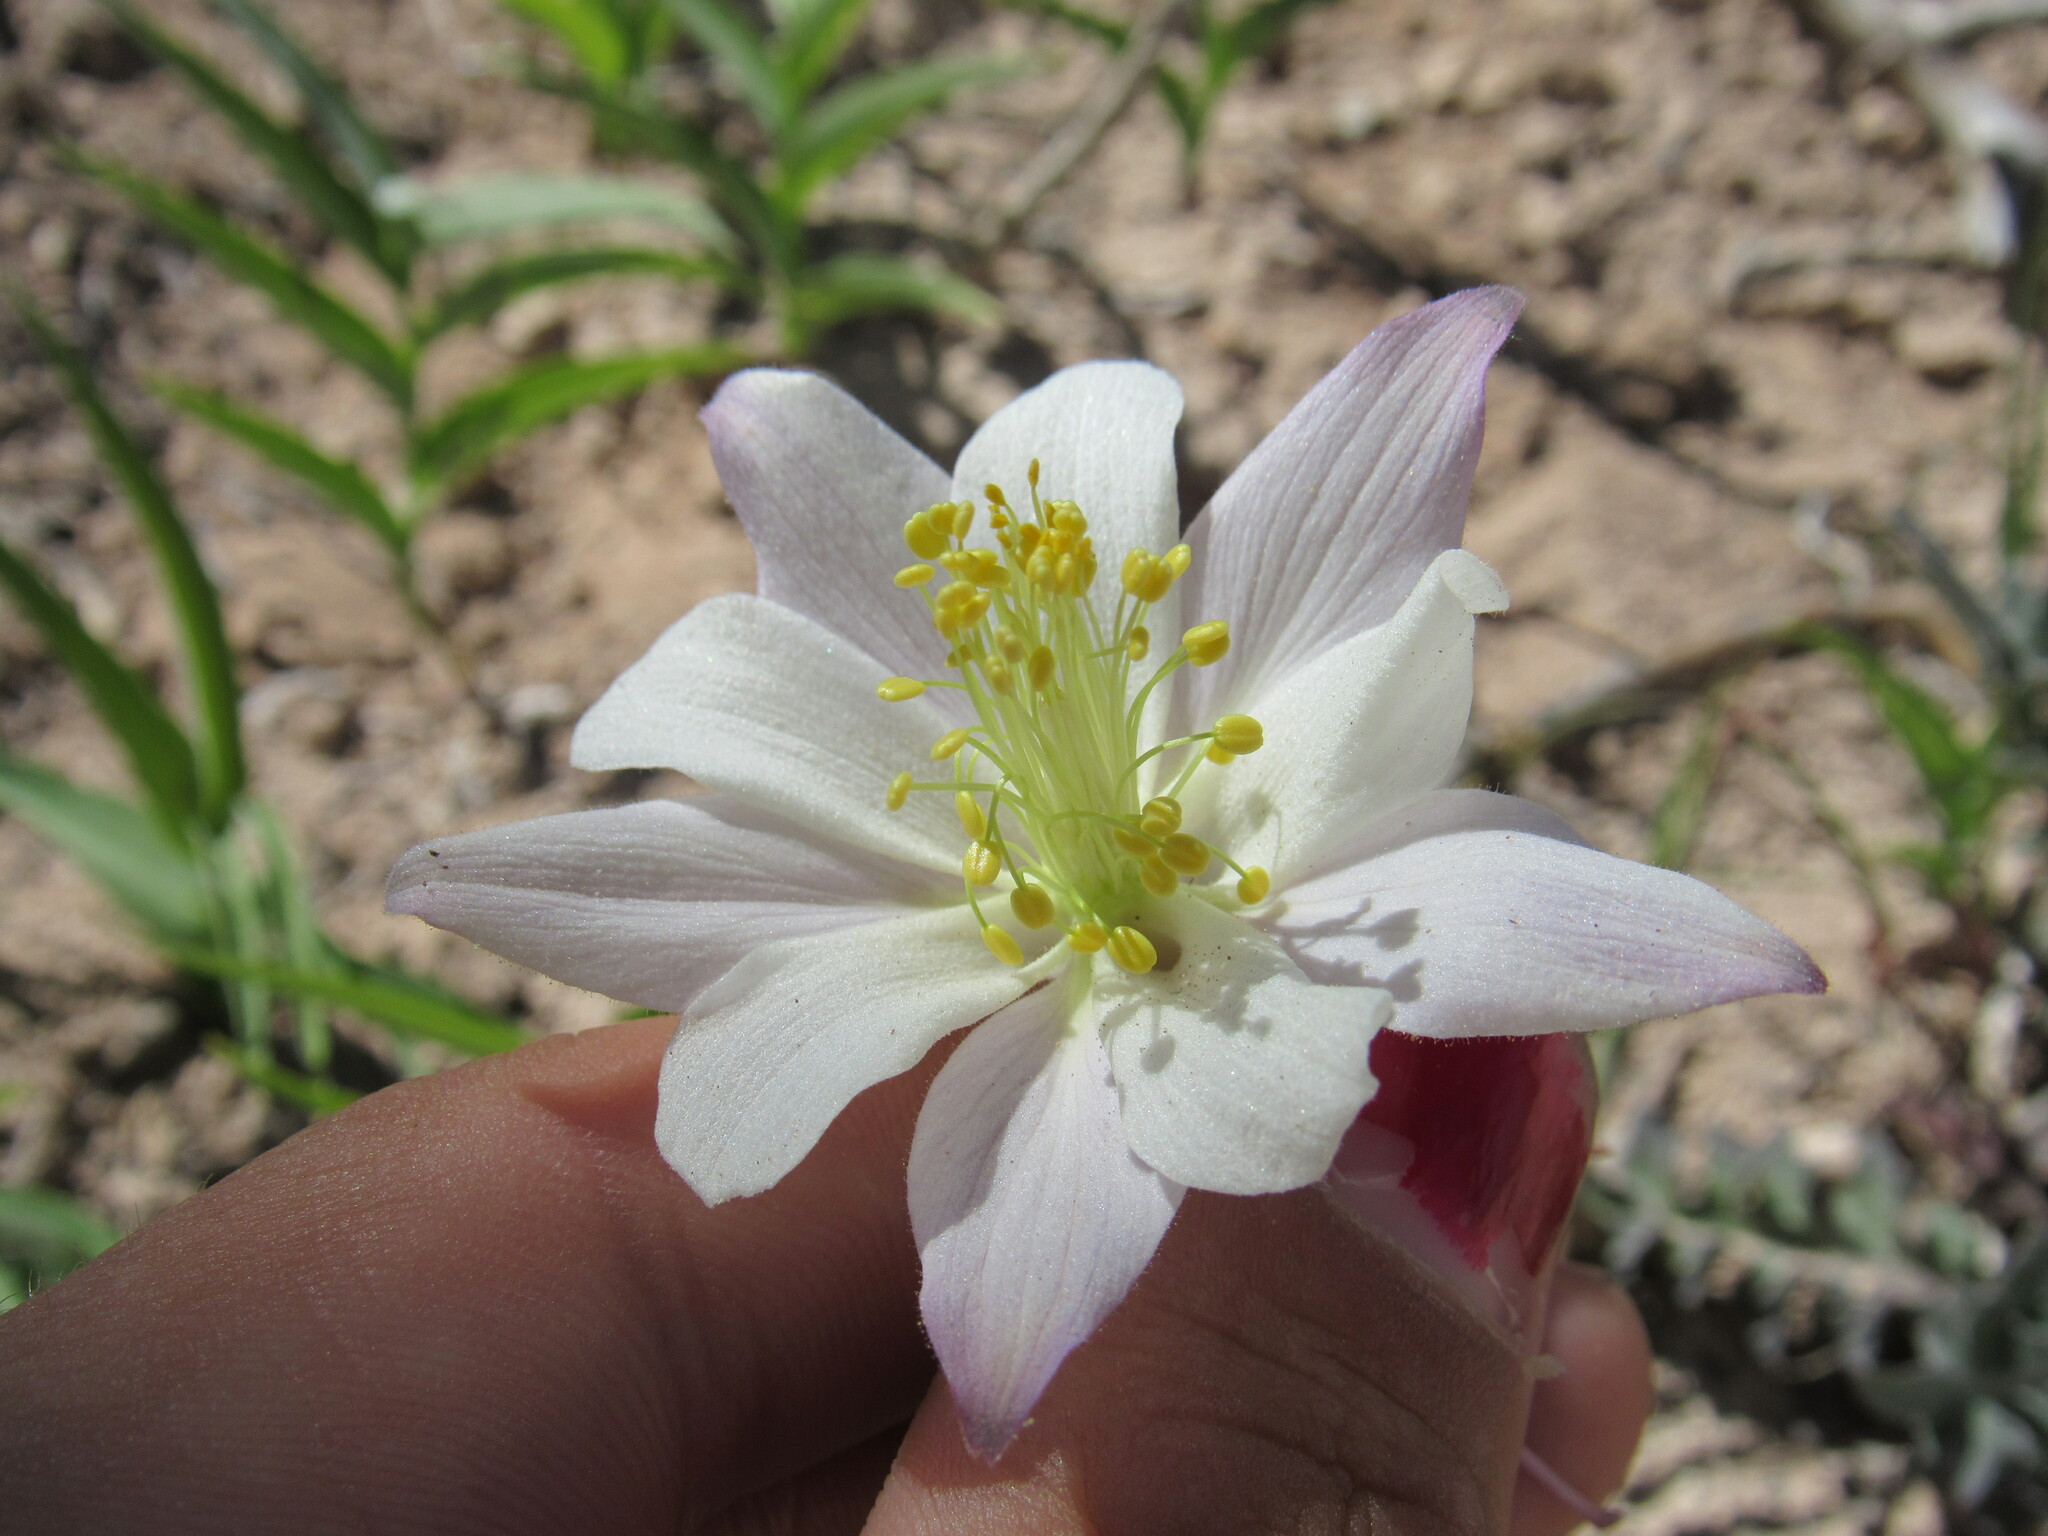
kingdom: Plantae
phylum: Tracheophyta
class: Magnoliopsida
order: Ranunculales
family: Ranunculaceae
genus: Aquilegia
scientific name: Aquilegia coerulea
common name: Rocky mountain columbine
